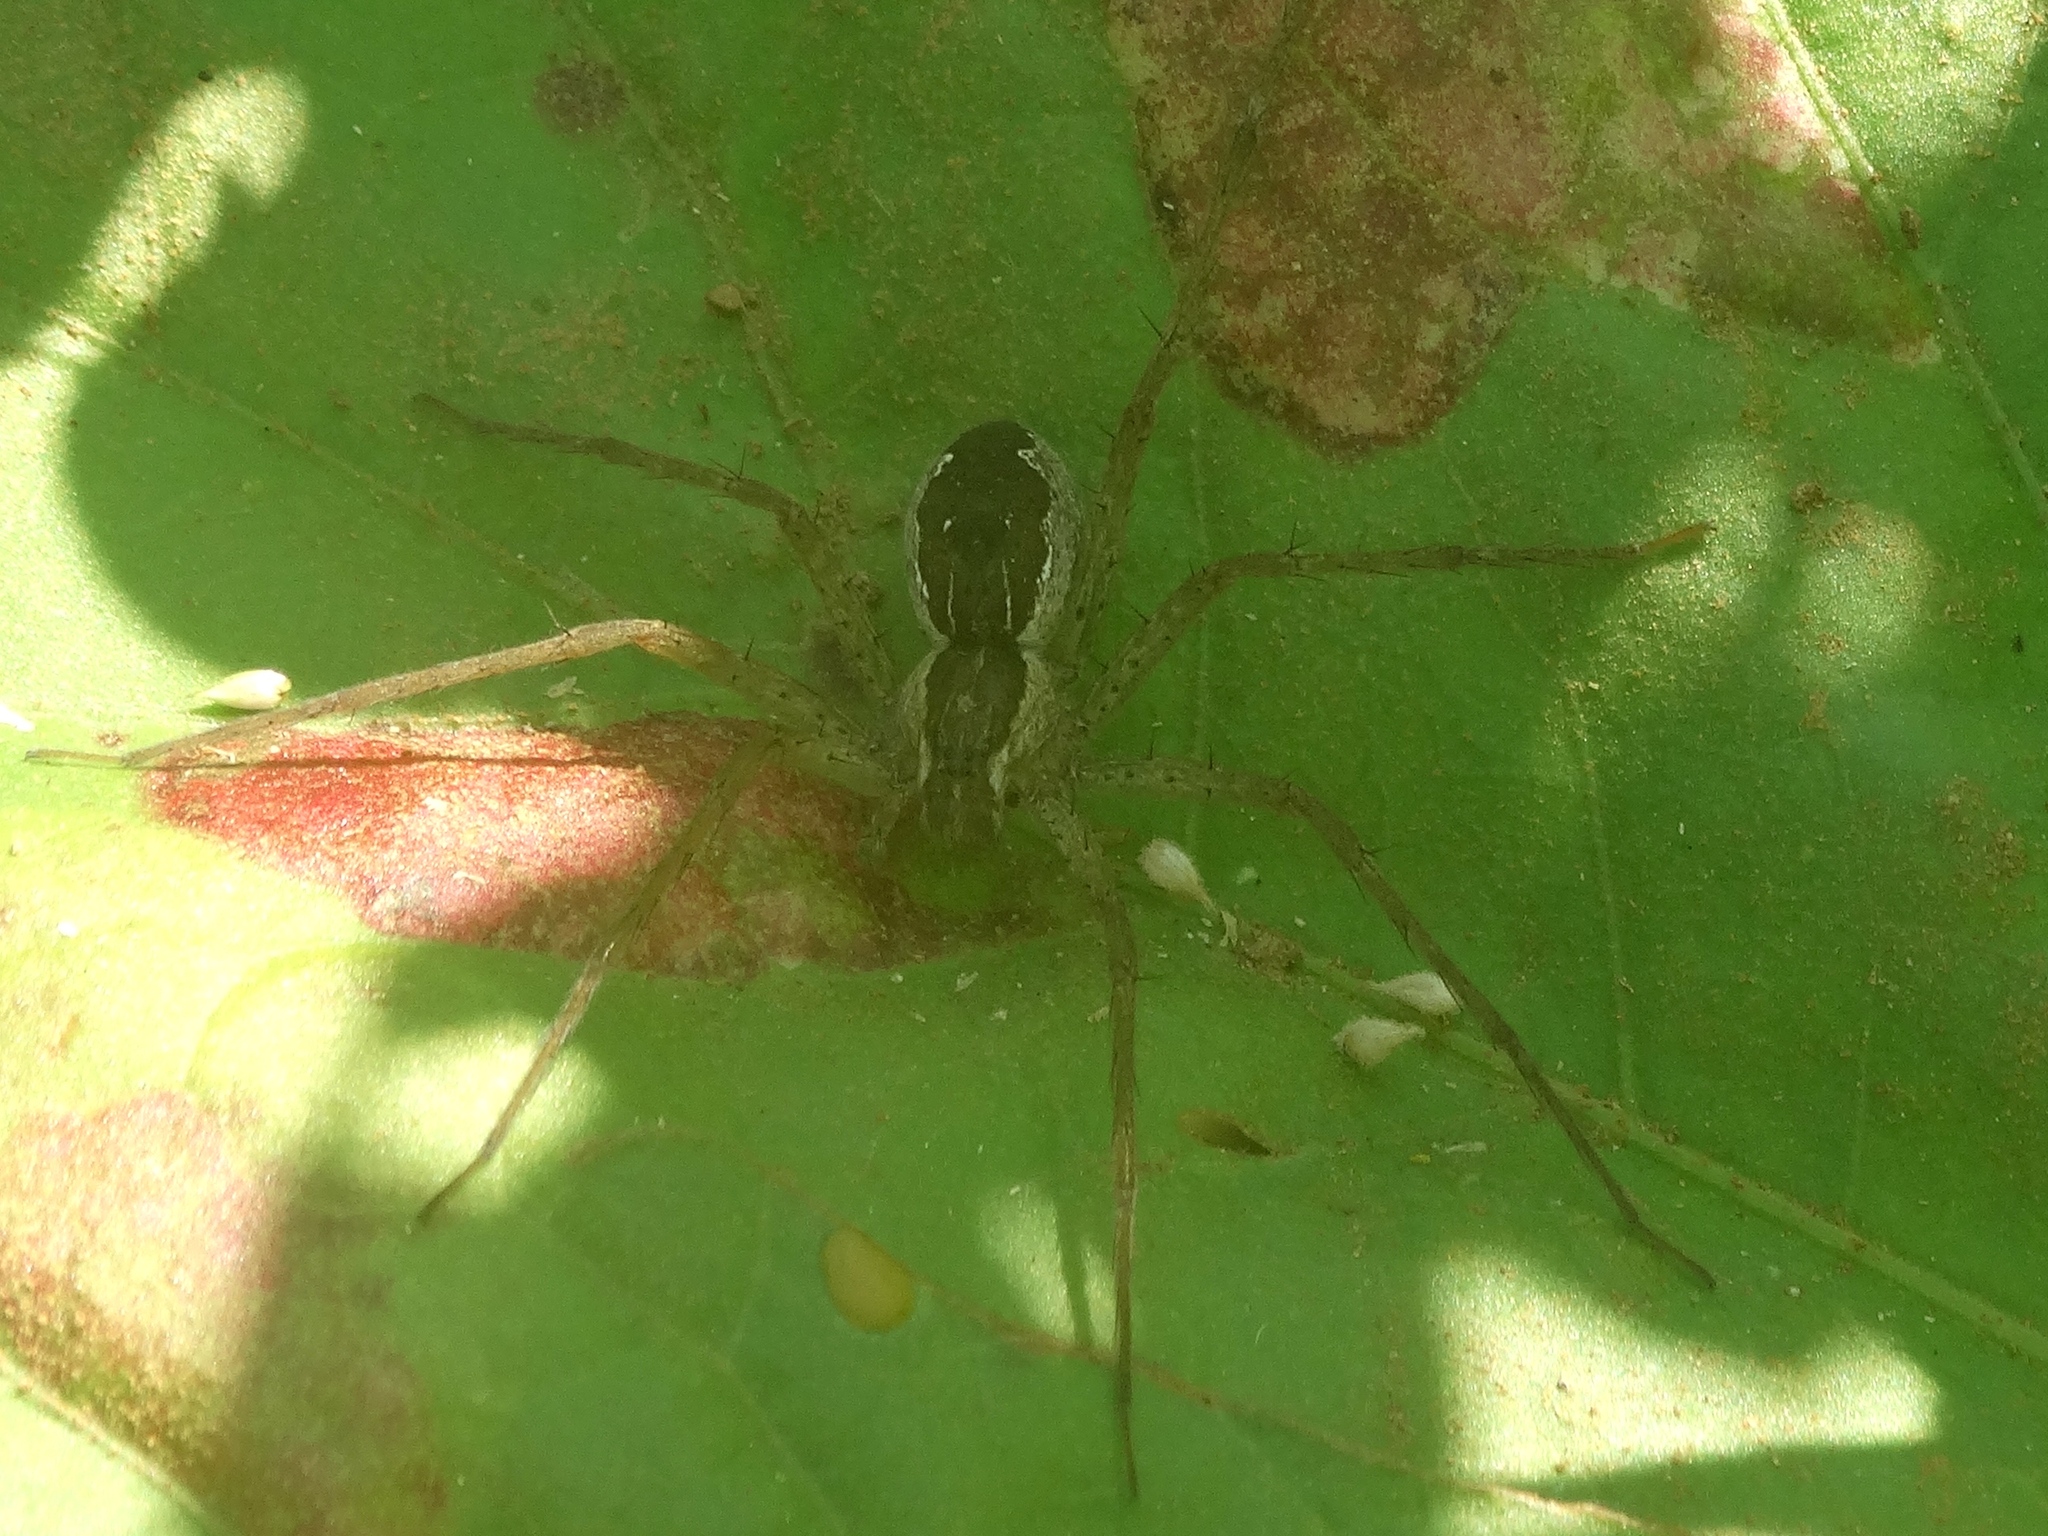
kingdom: Animalia
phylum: Arthropoda
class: Arachnida
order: Araneae
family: Pisauridae
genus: Tinus
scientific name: Tinus
